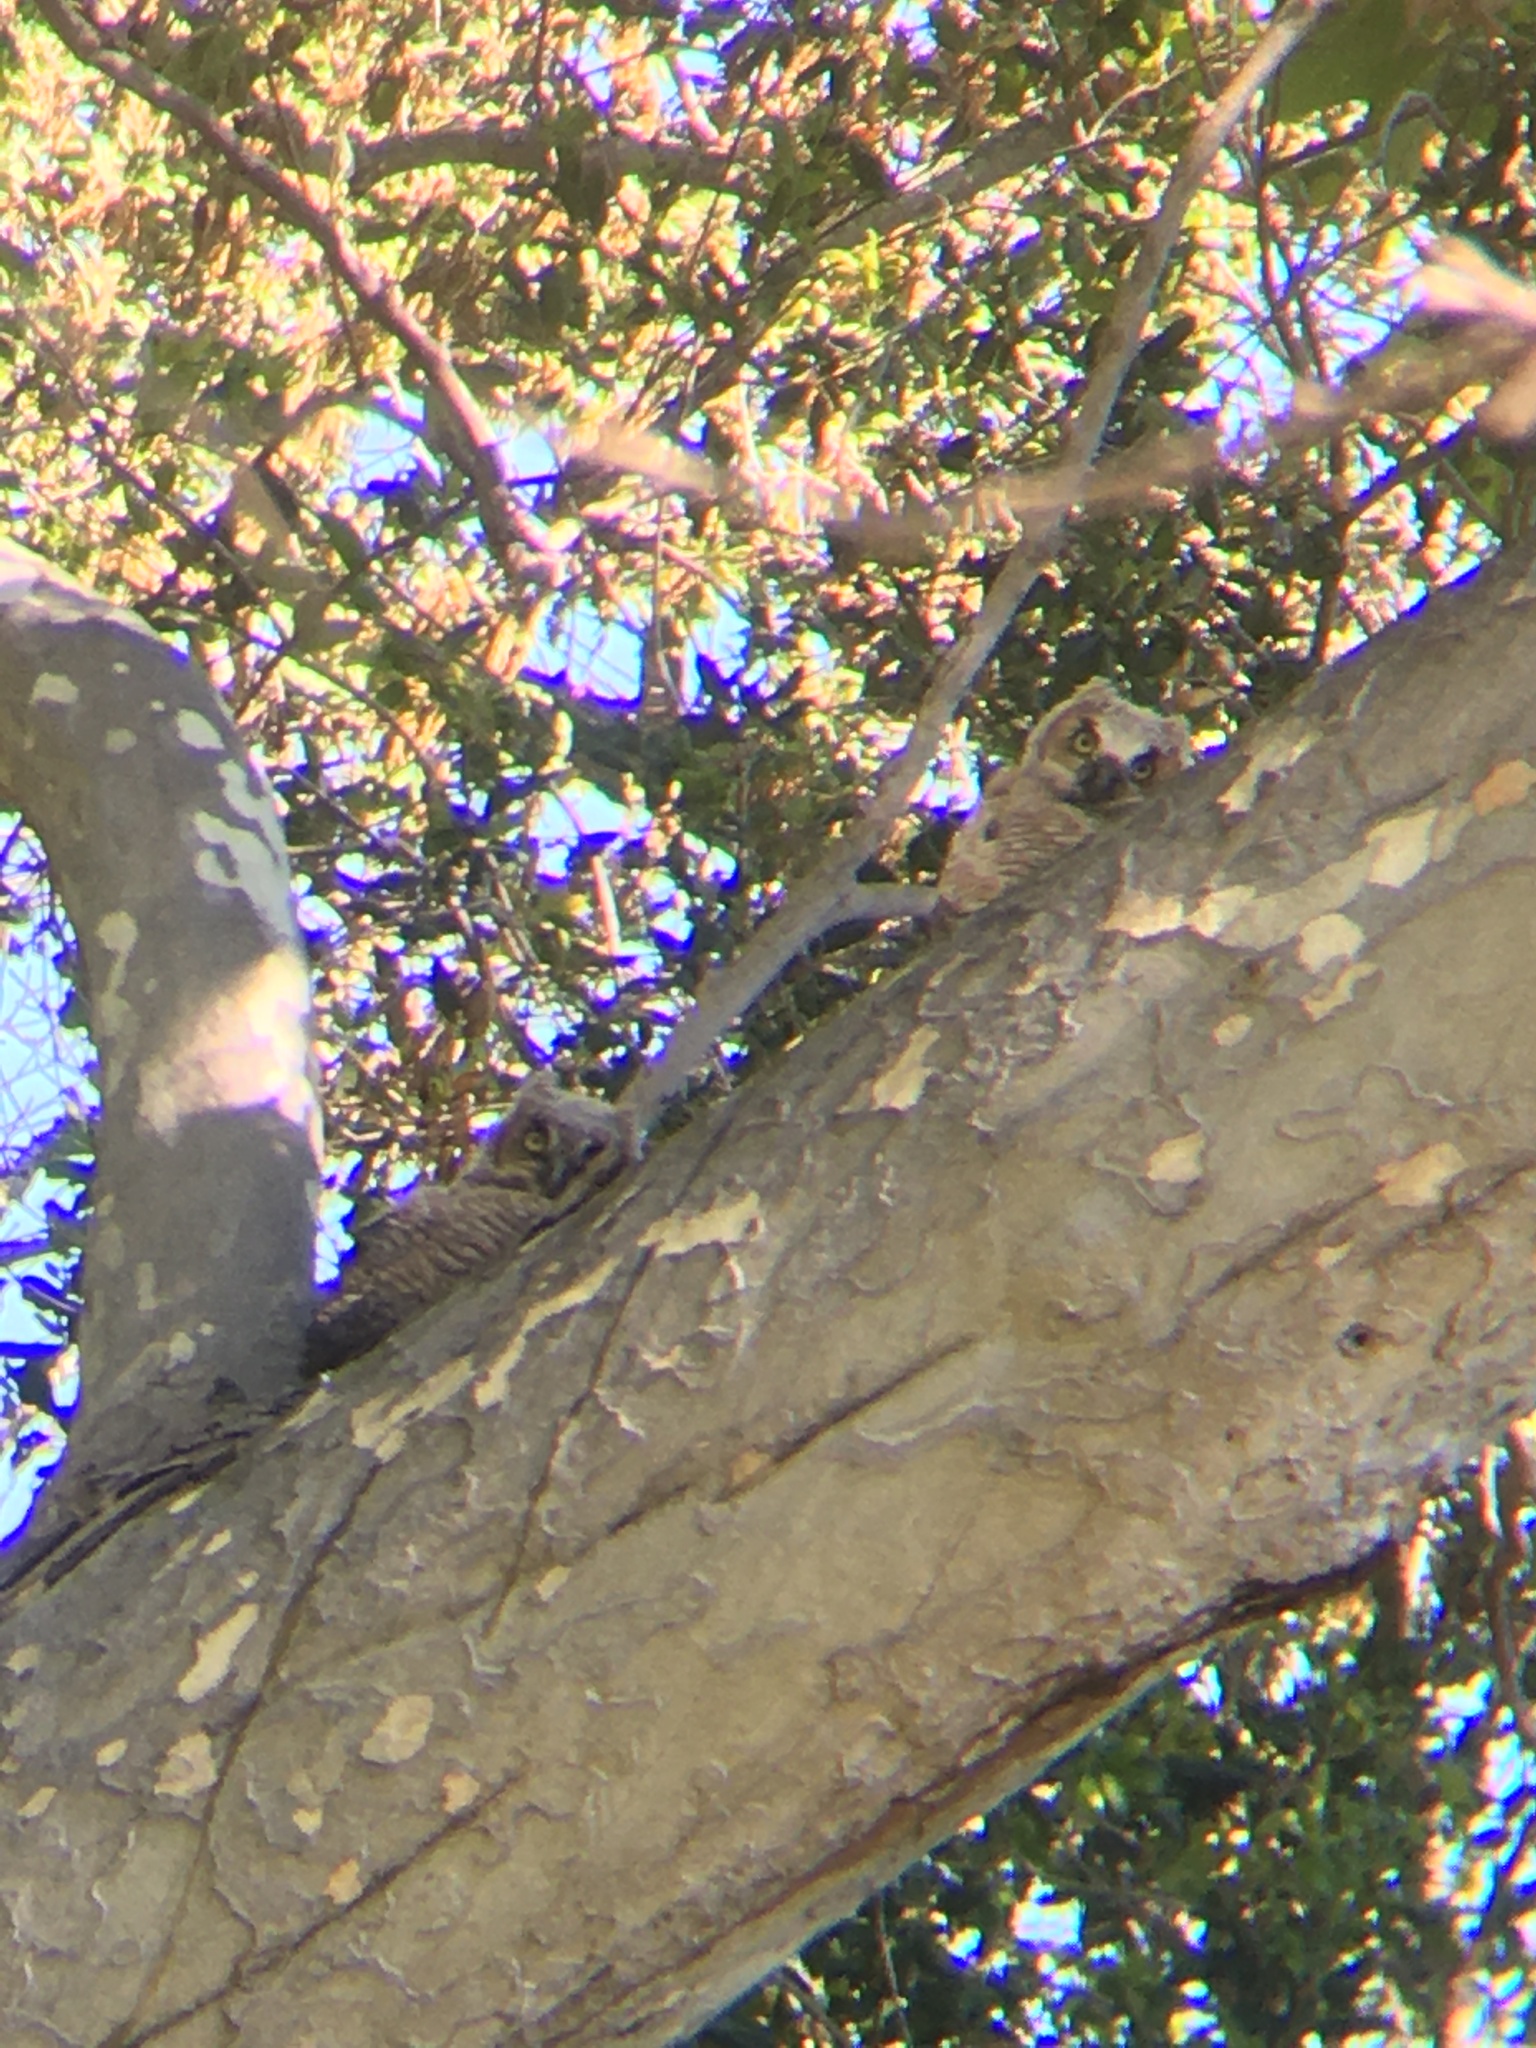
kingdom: Animalia
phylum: Chordata
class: Aves
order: Strigiformes
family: Strigidae
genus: Bubo
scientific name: Bubo virginianus
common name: Great horned owl
